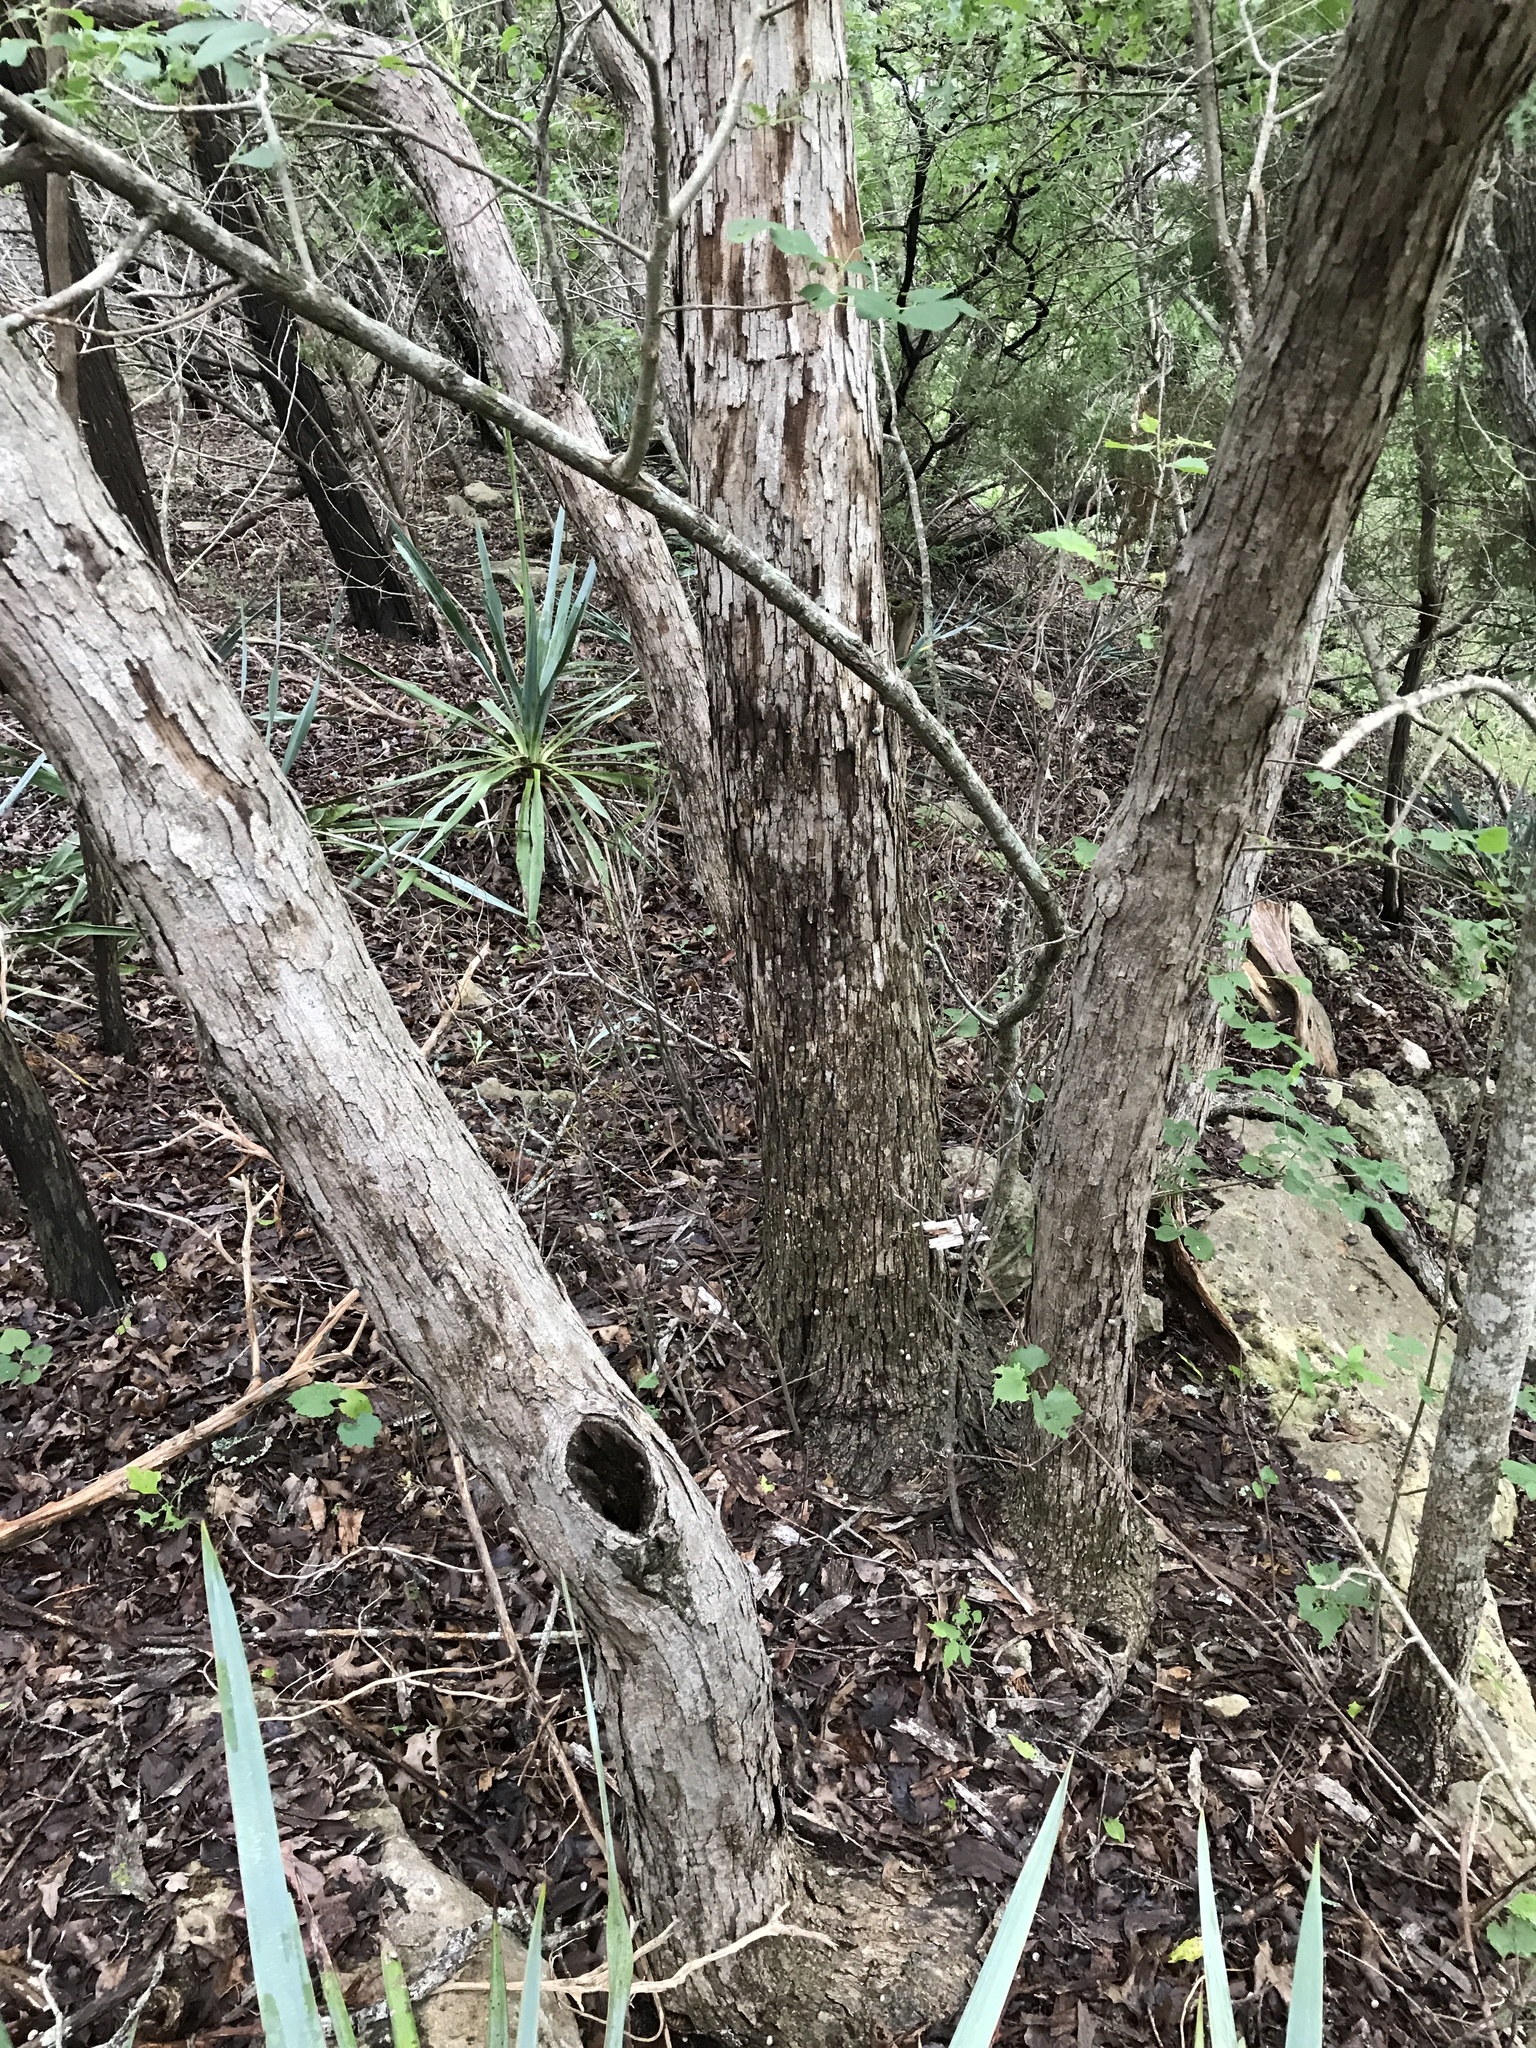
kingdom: Plantae
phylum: Tracheophyta
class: Magnoliopsida
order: Fagales
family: Fagaceae
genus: Quercus
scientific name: Quercus sinuata
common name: Durand oak
